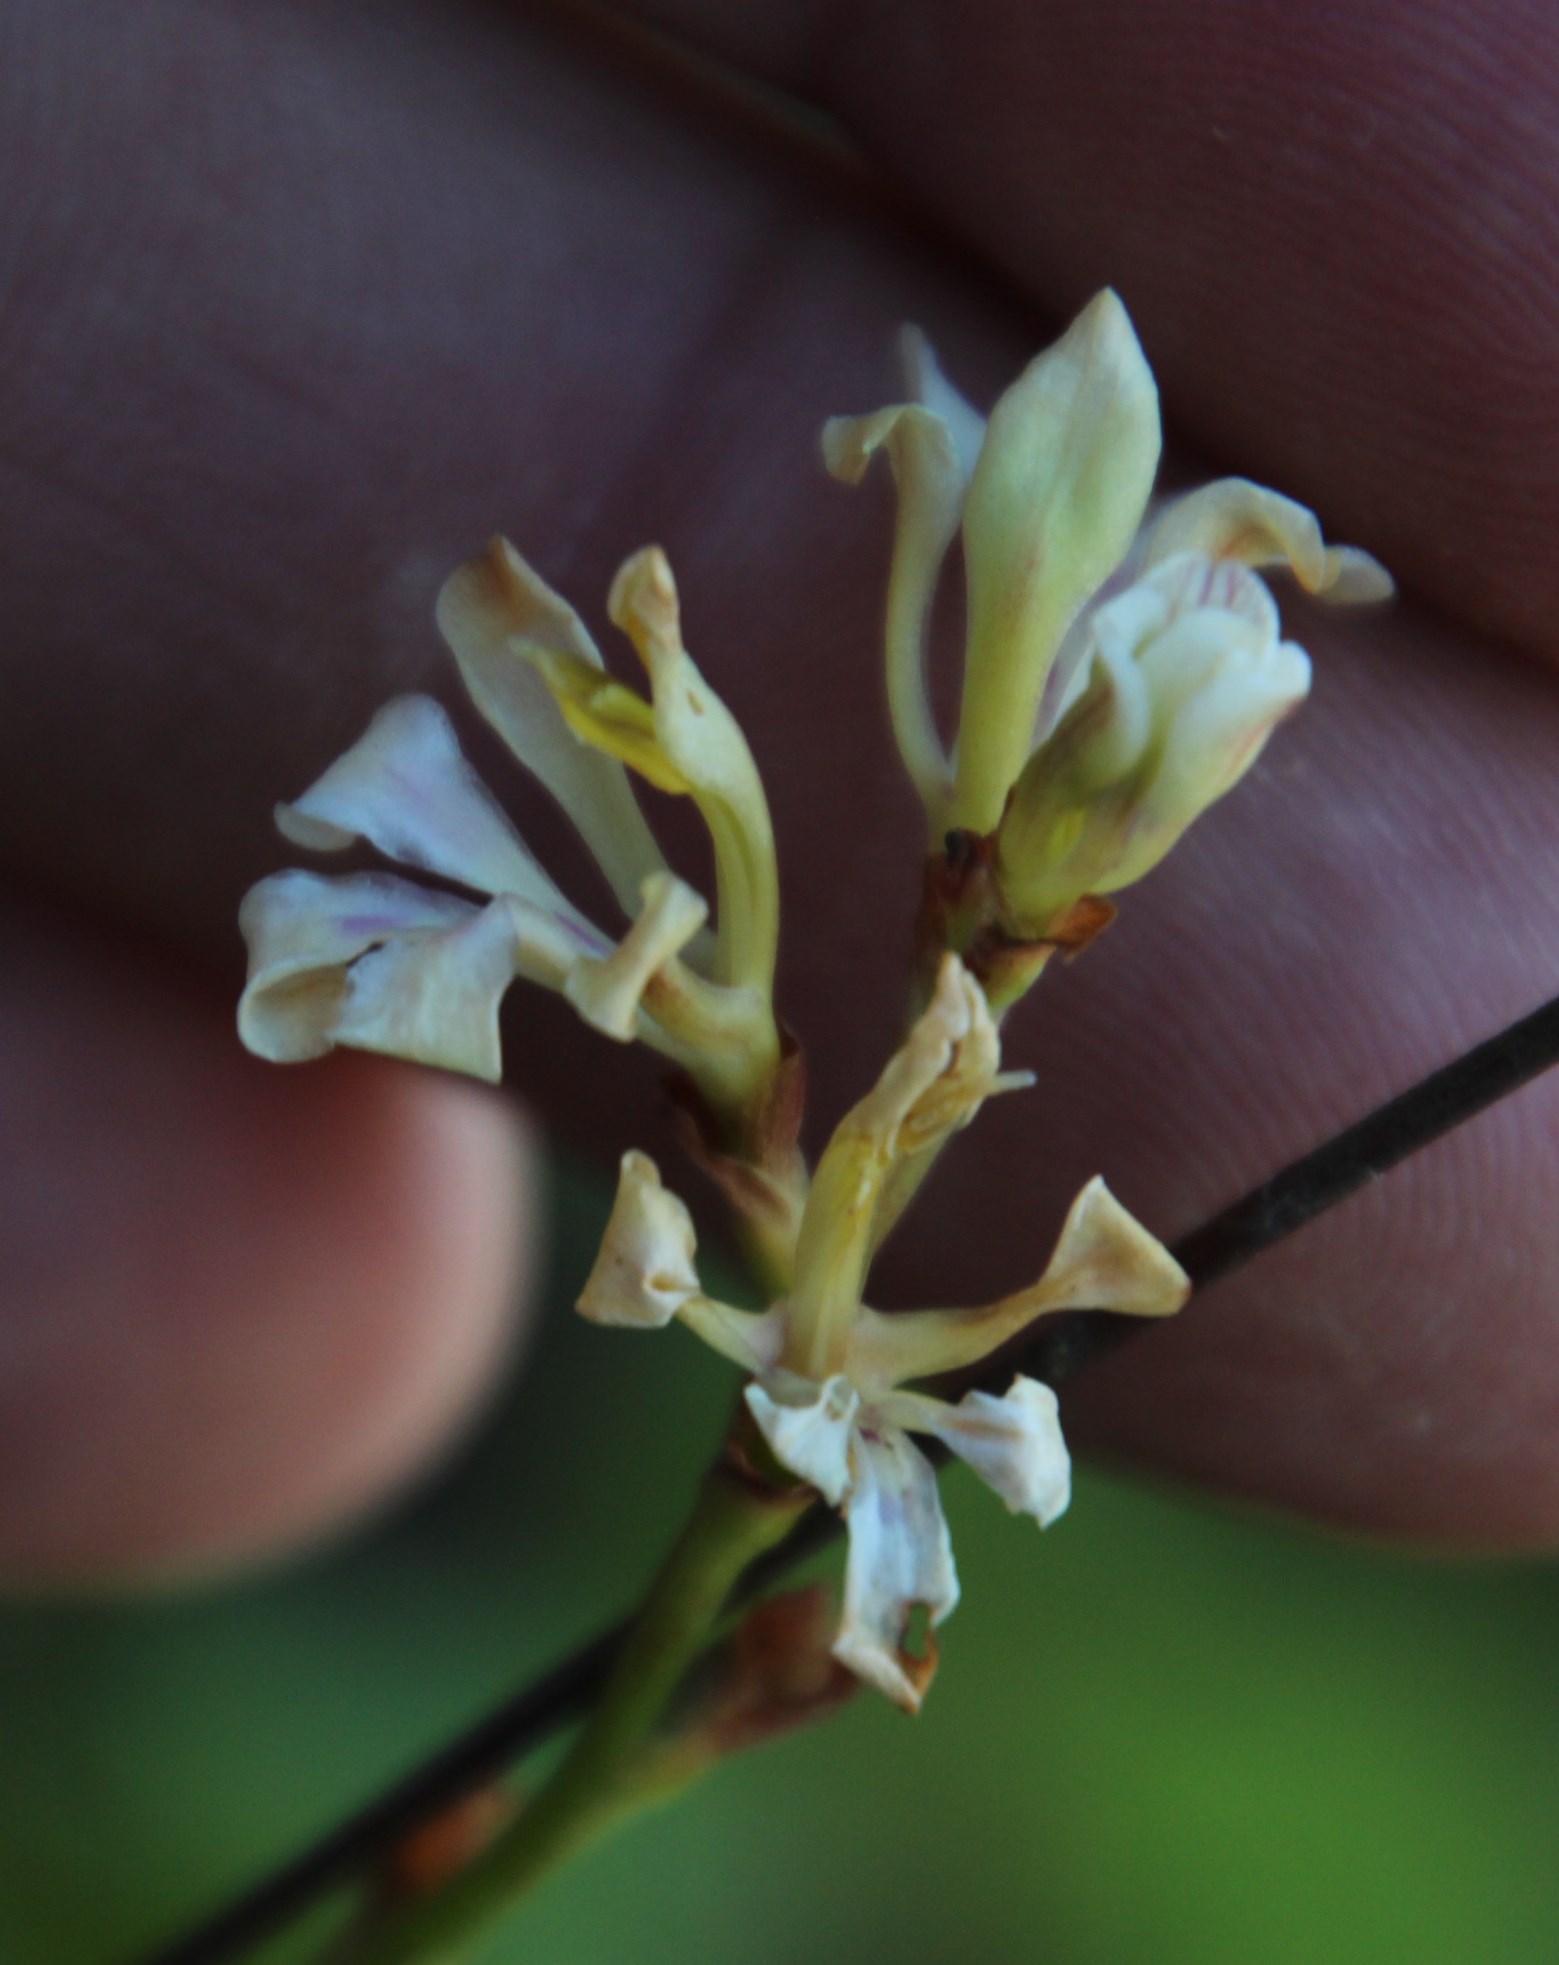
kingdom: Plantae
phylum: Tracheophyta
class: Liliopsida
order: Asparagales
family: Iridaceae
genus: Tritoniopsis
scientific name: Tritoniopsis unguicularis
